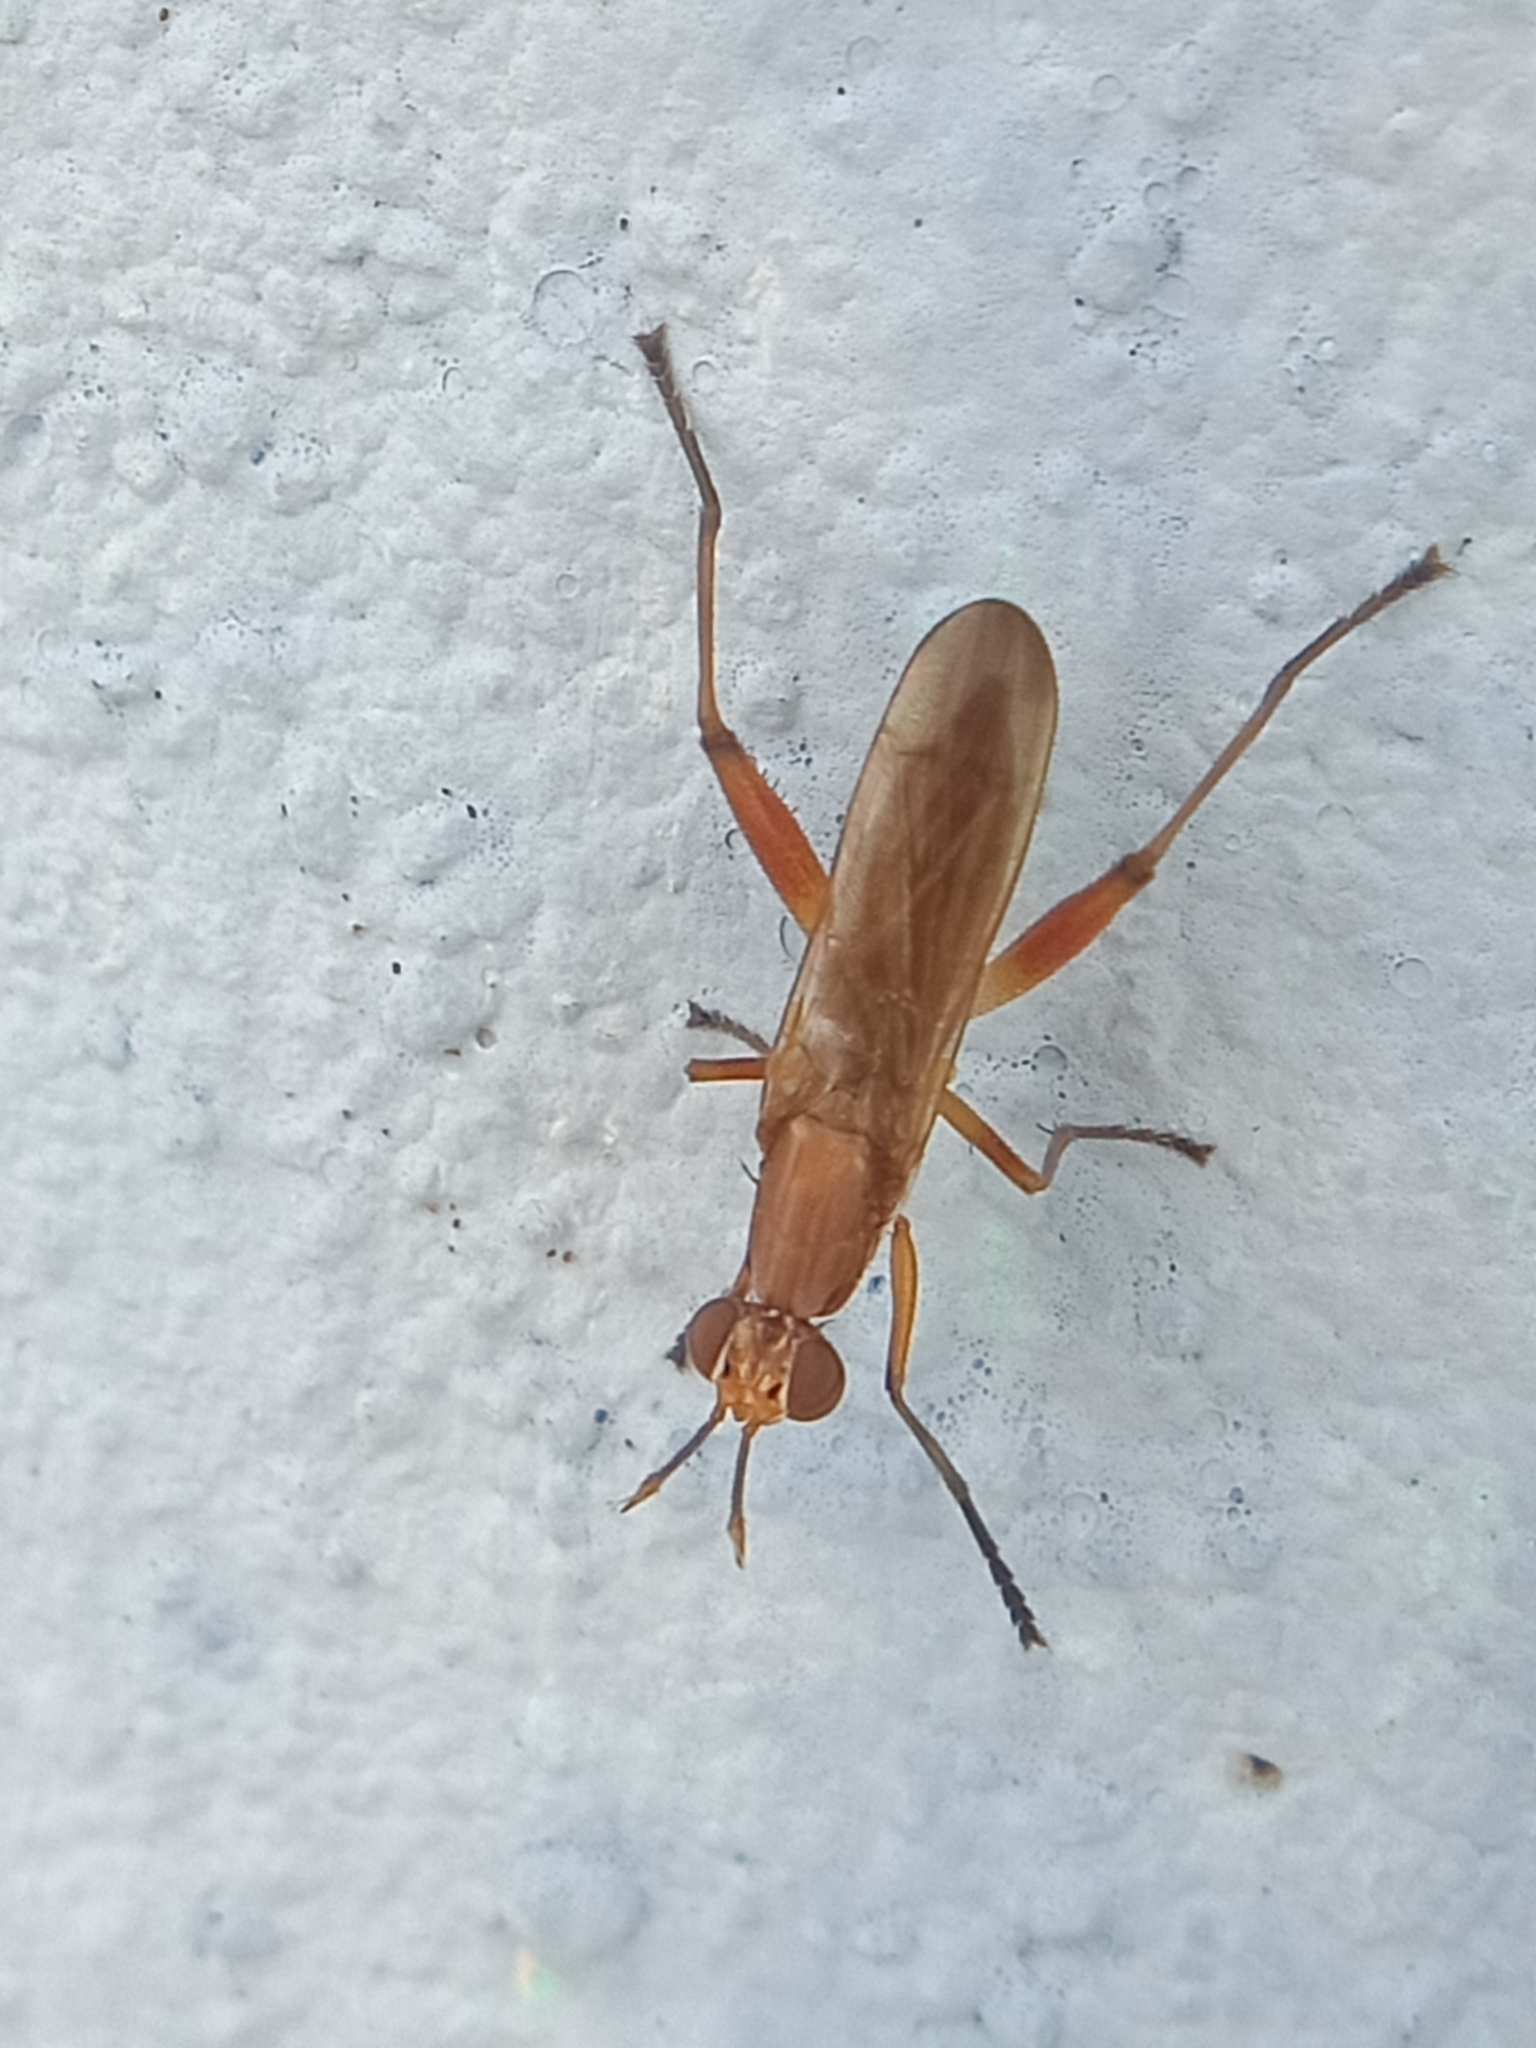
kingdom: Animalia
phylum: Arthropoda
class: Insecta
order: Diptera
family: Sciomyzidae
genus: Sepedon
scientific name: Sepedon ferruginosa
